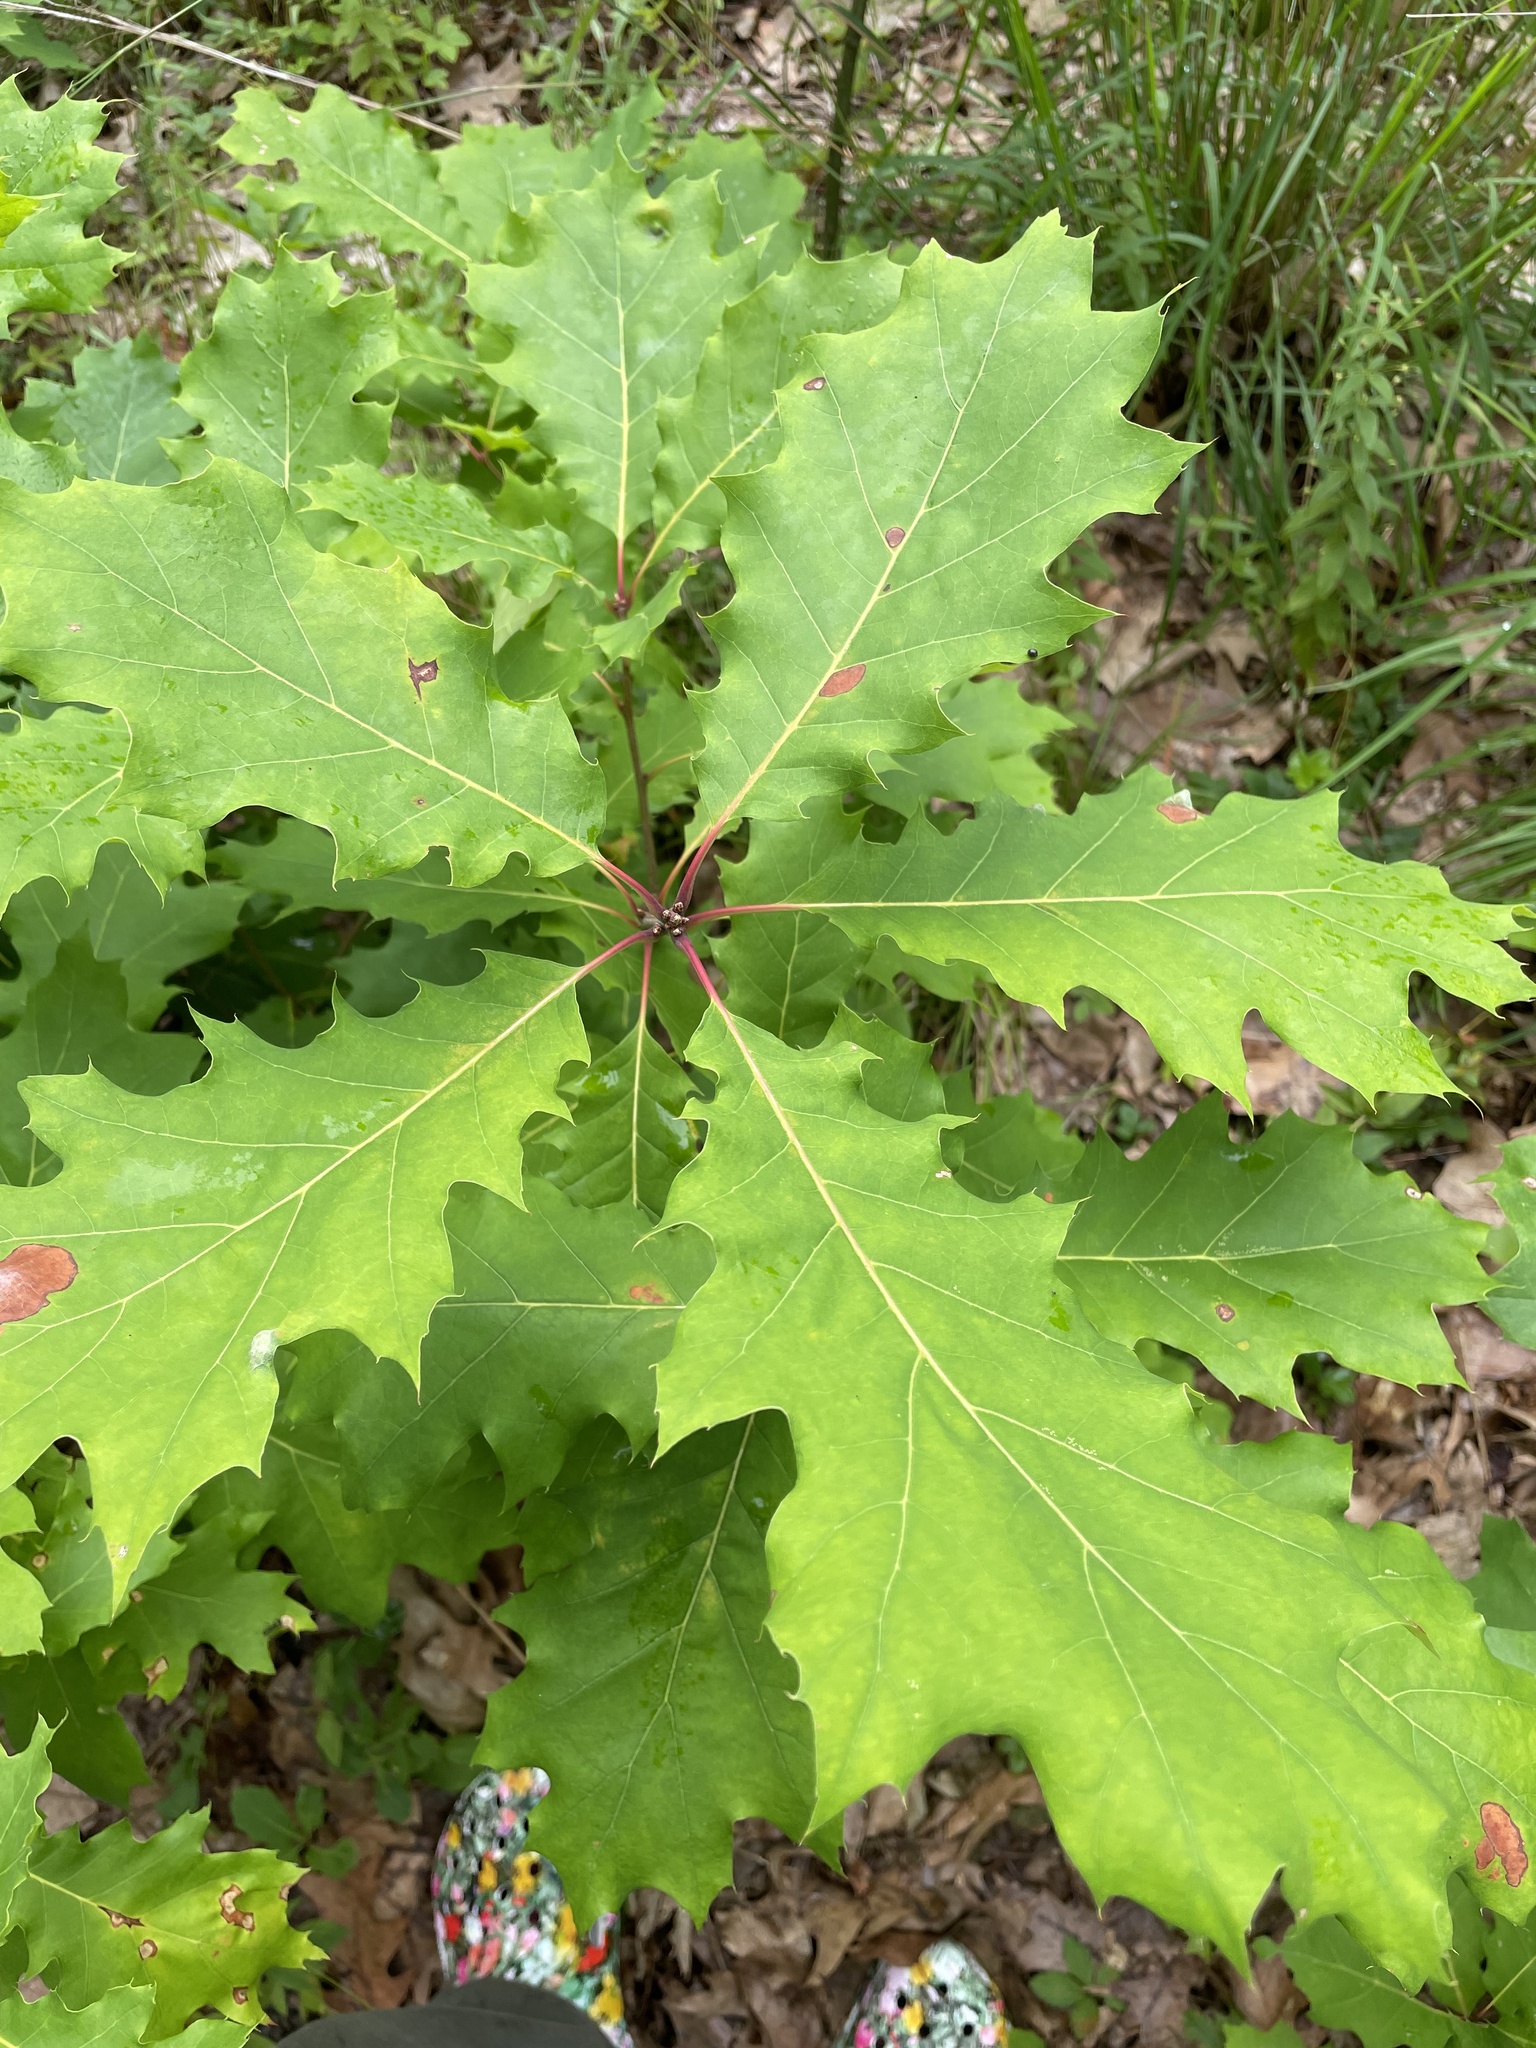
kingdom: Plantae
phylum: Tracheophyta
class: Magnoliopsida
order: Fagales
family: Fagaceae
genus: Quercus
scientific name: Quercus rubra
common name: Red oak
